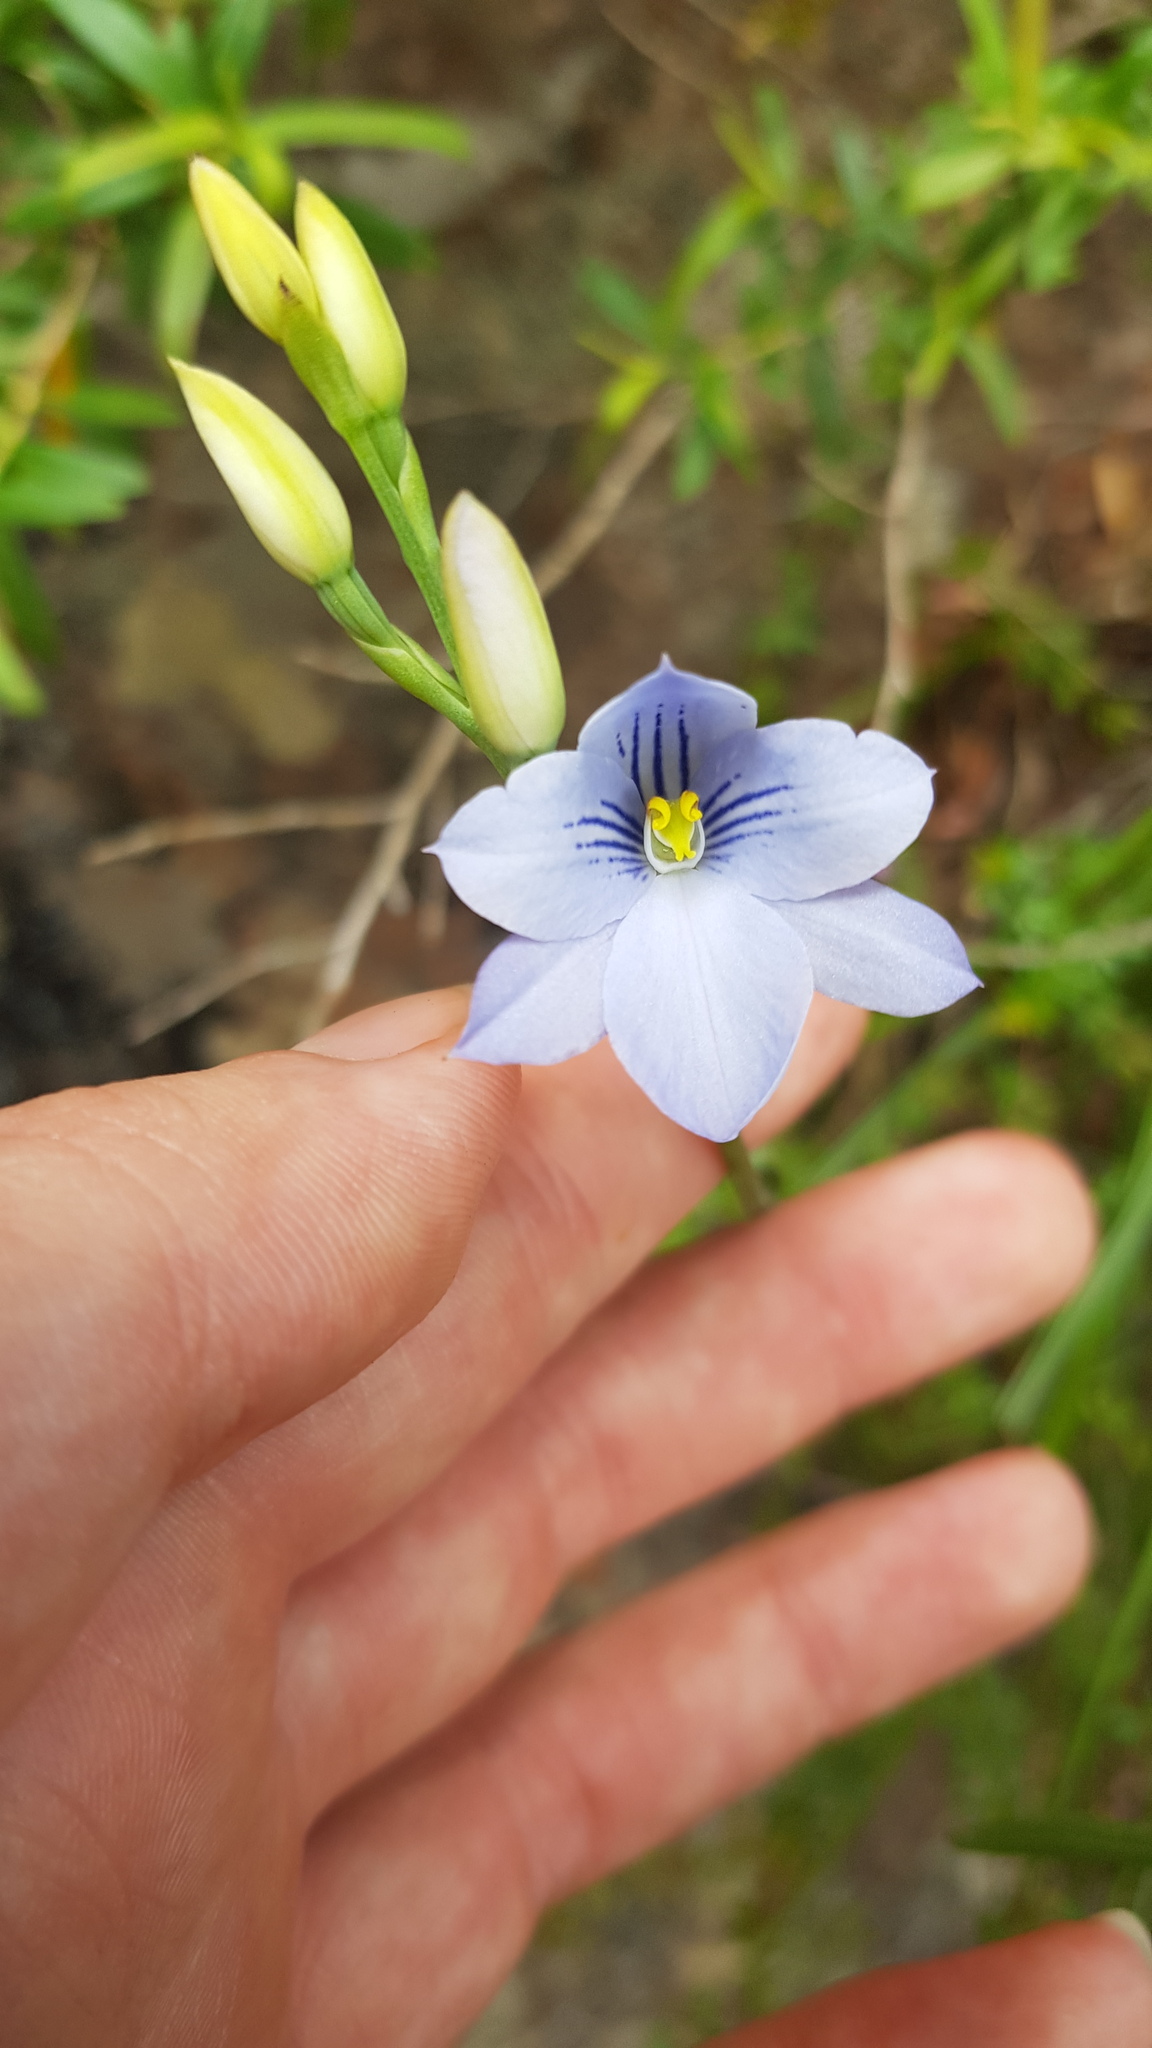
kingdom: Plantae
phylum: Tracheophyta
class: Liliopsida
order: Asparagales
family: Orchidaceae
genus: Thelymitra
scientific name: Thelymitra venosa
